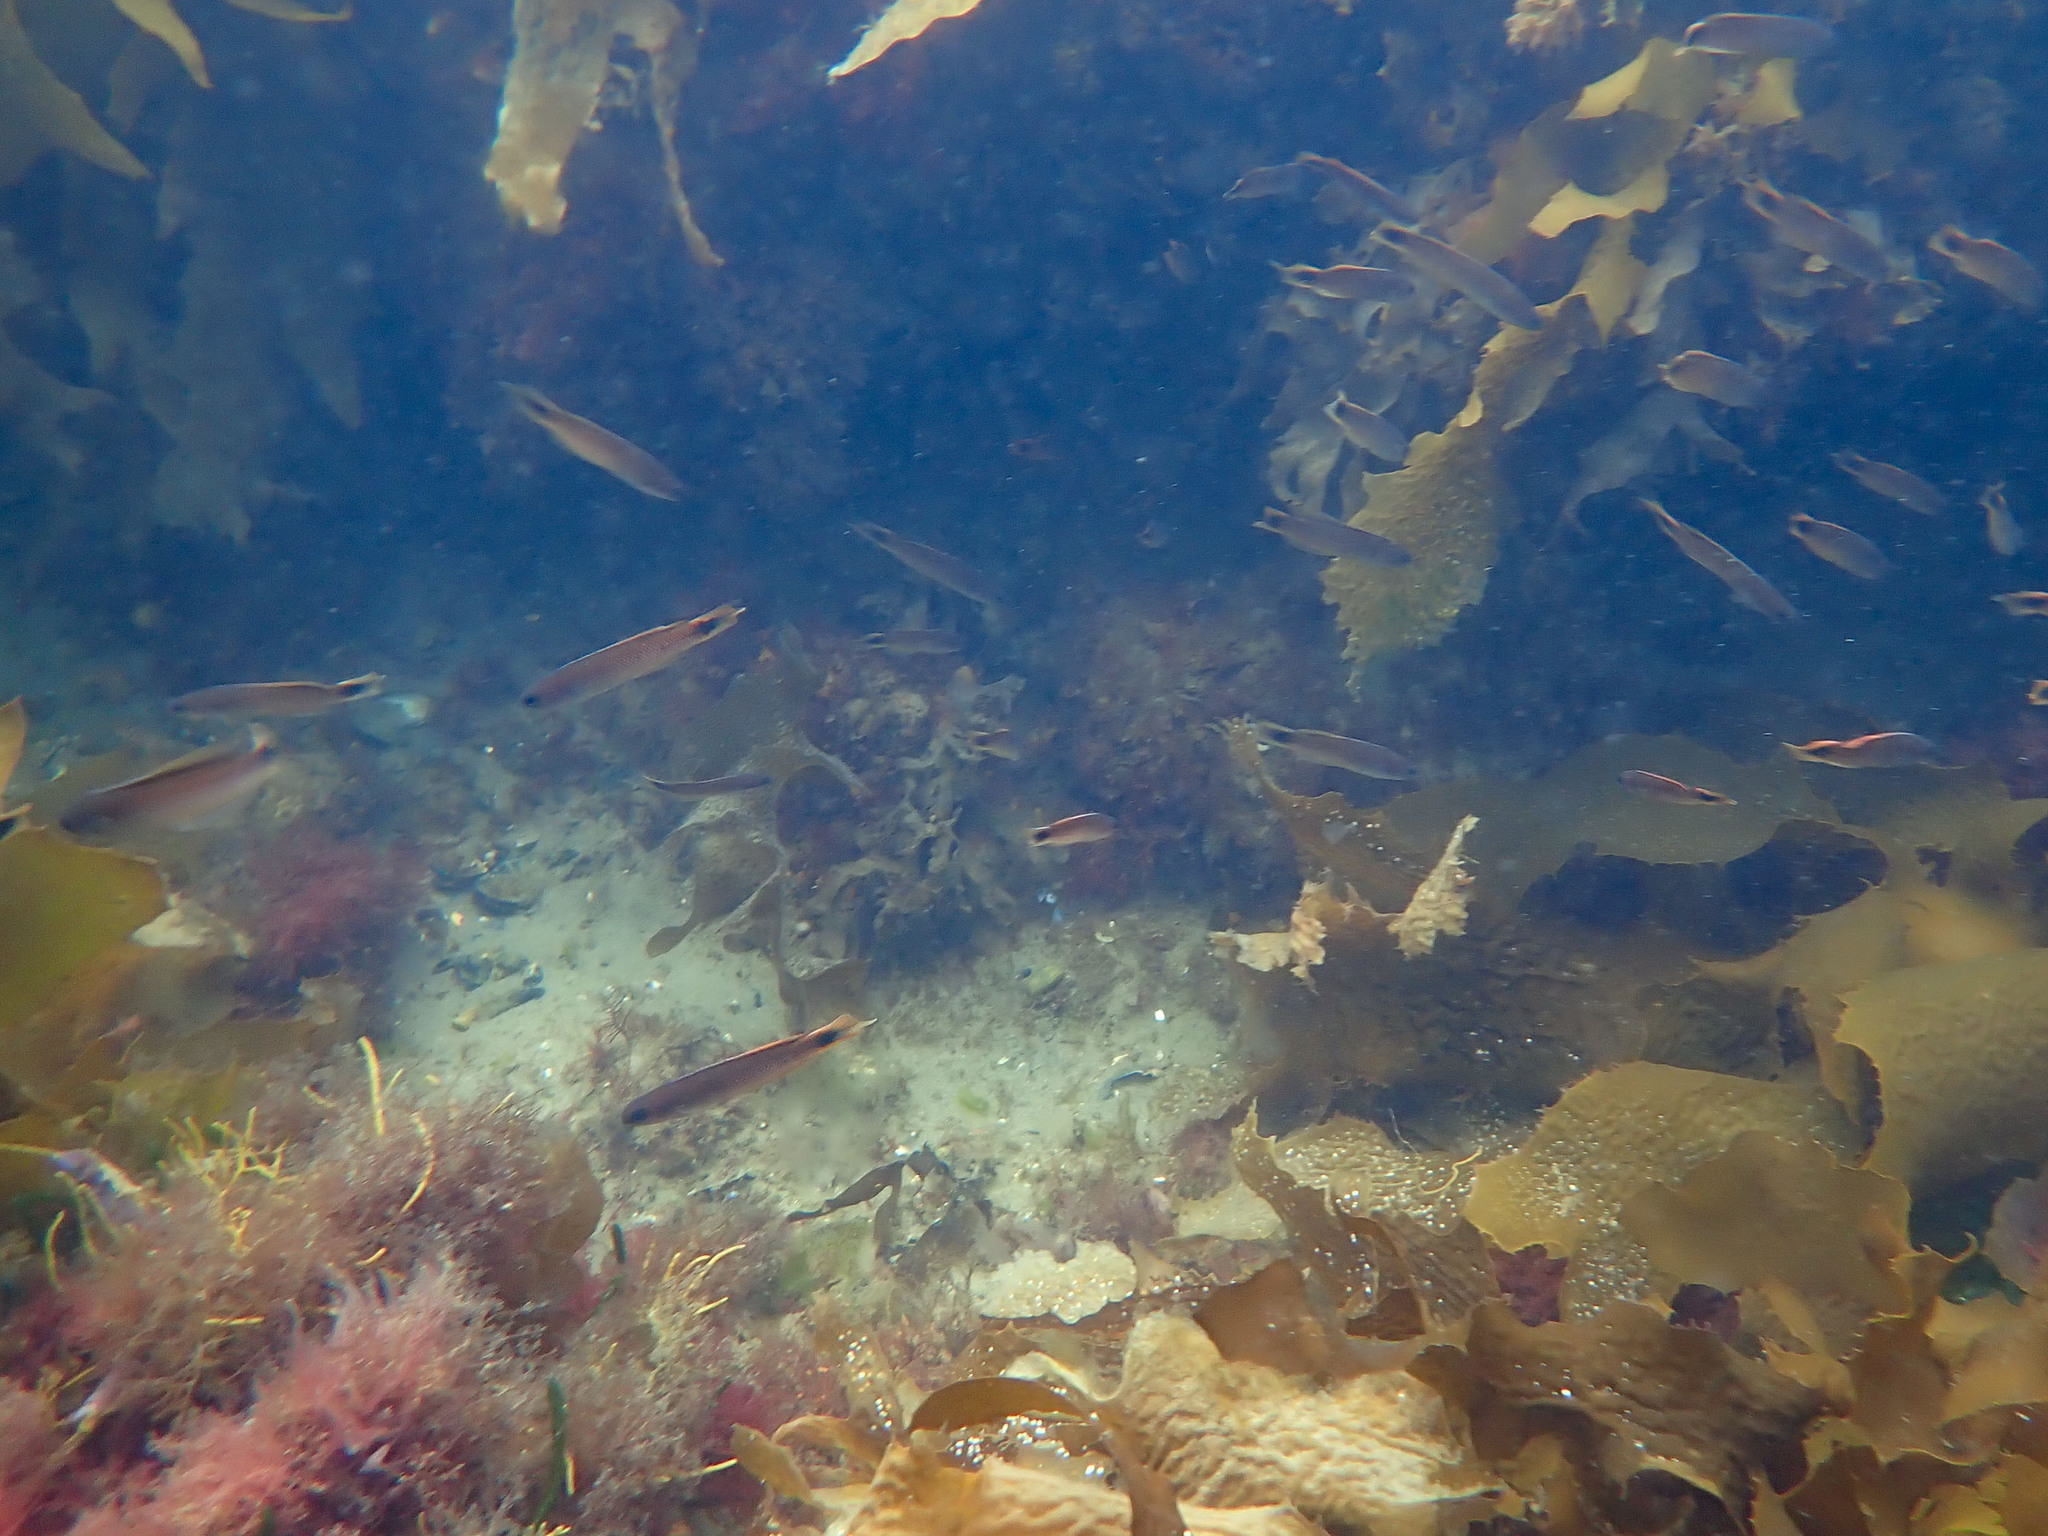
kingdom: Animalia
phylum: Chordata
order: Perciformes
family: Plesiopidae
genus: Trachinops
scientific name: Trachinops caudimaculatus
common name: Blotched-tailed trachinops
